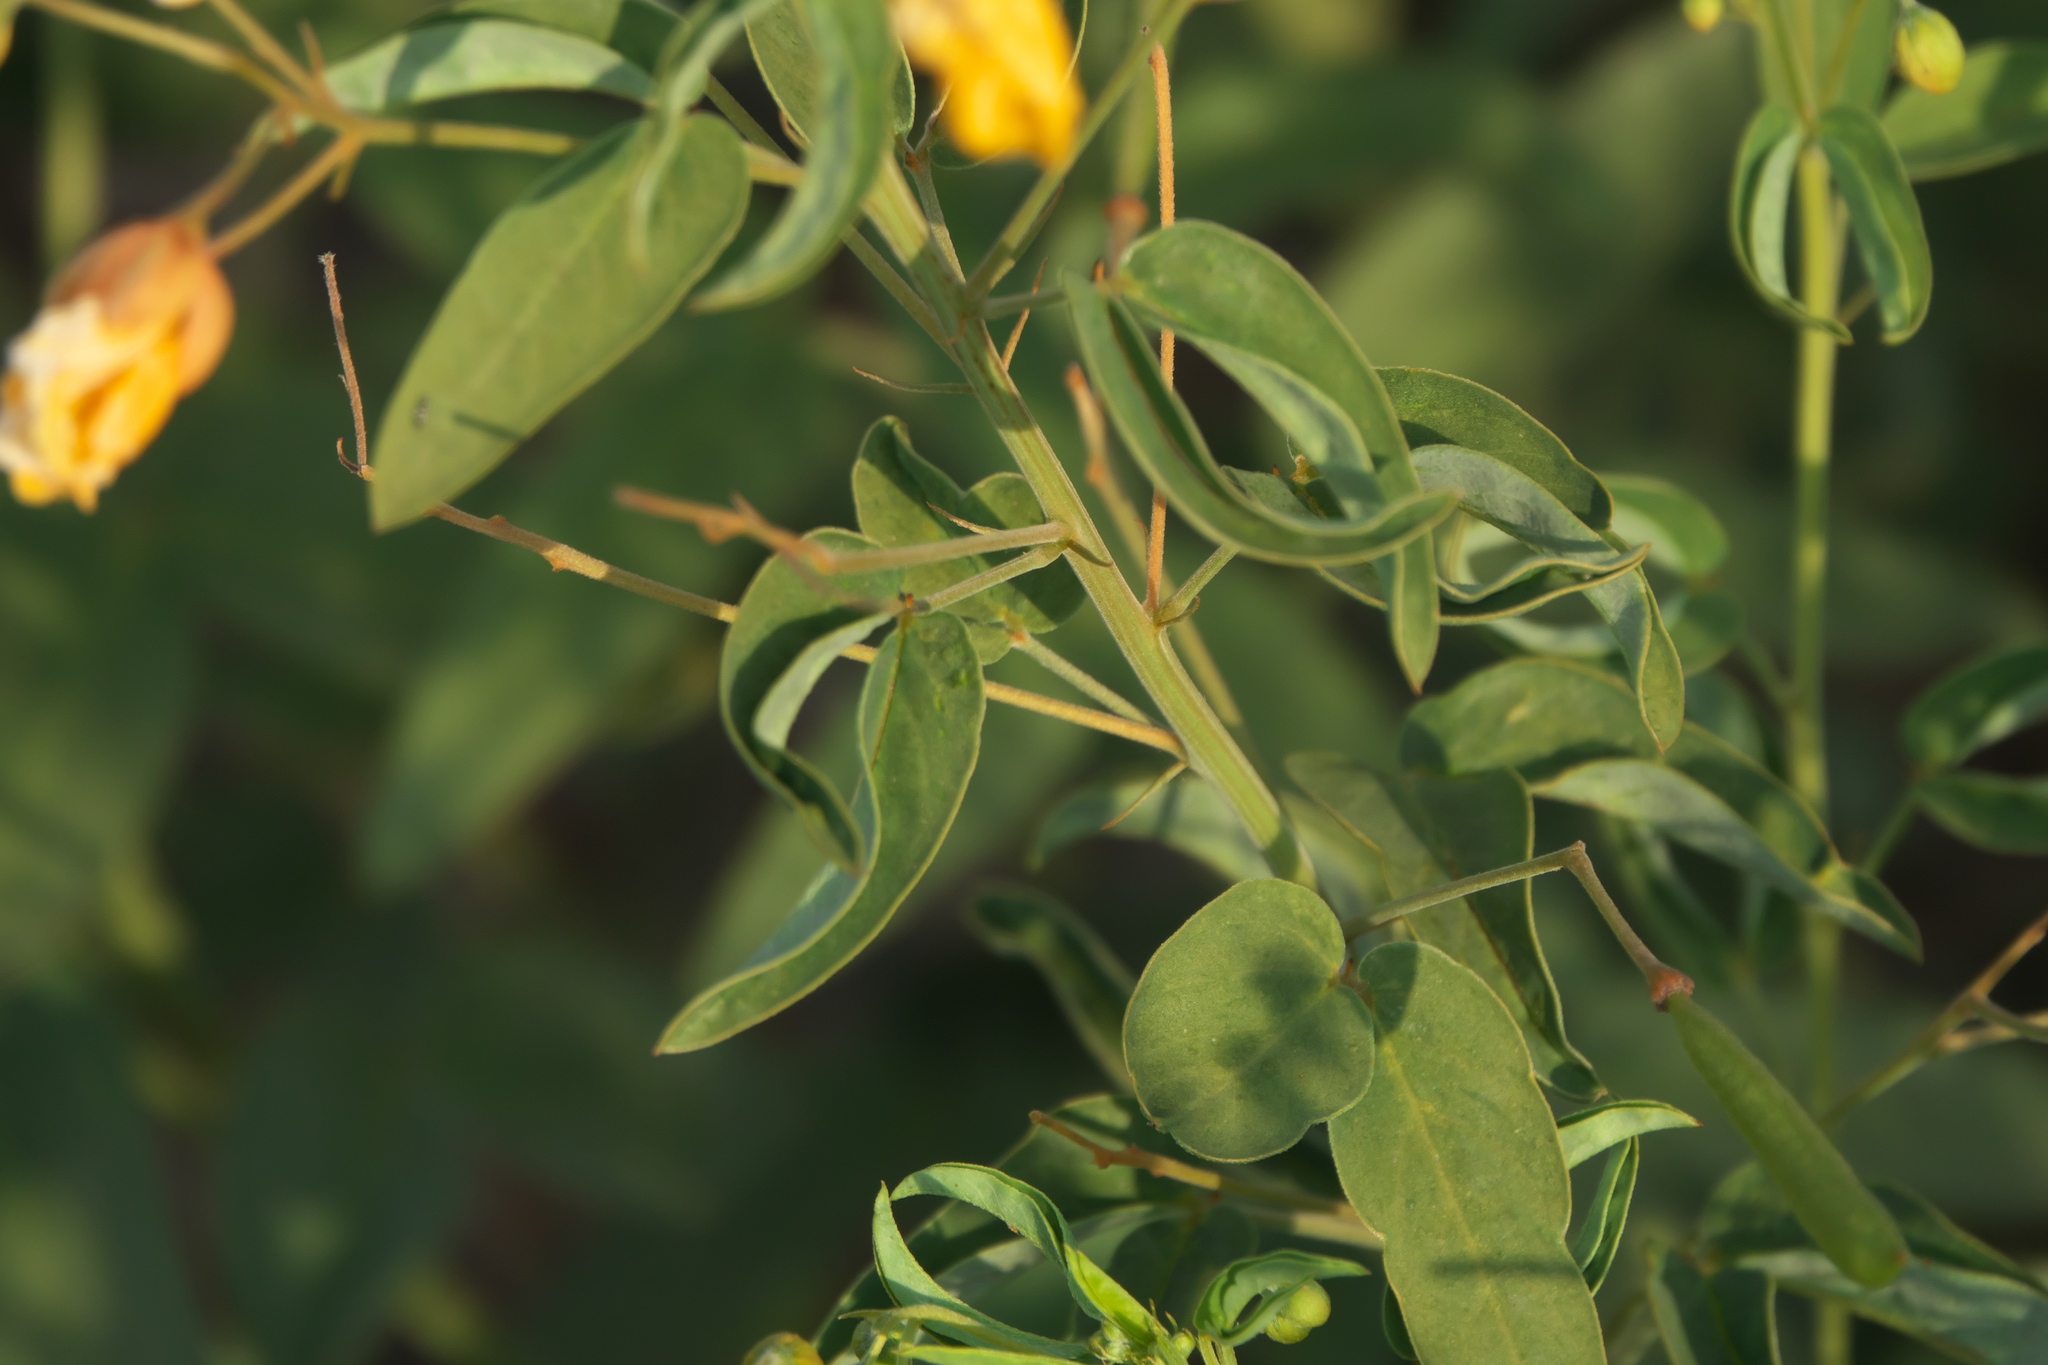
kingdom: Plantae
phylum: Tracheophyta
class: Magnoliopsida
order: Fabales
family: Fabaceae
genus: Senna
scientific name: Senna roemeriana
